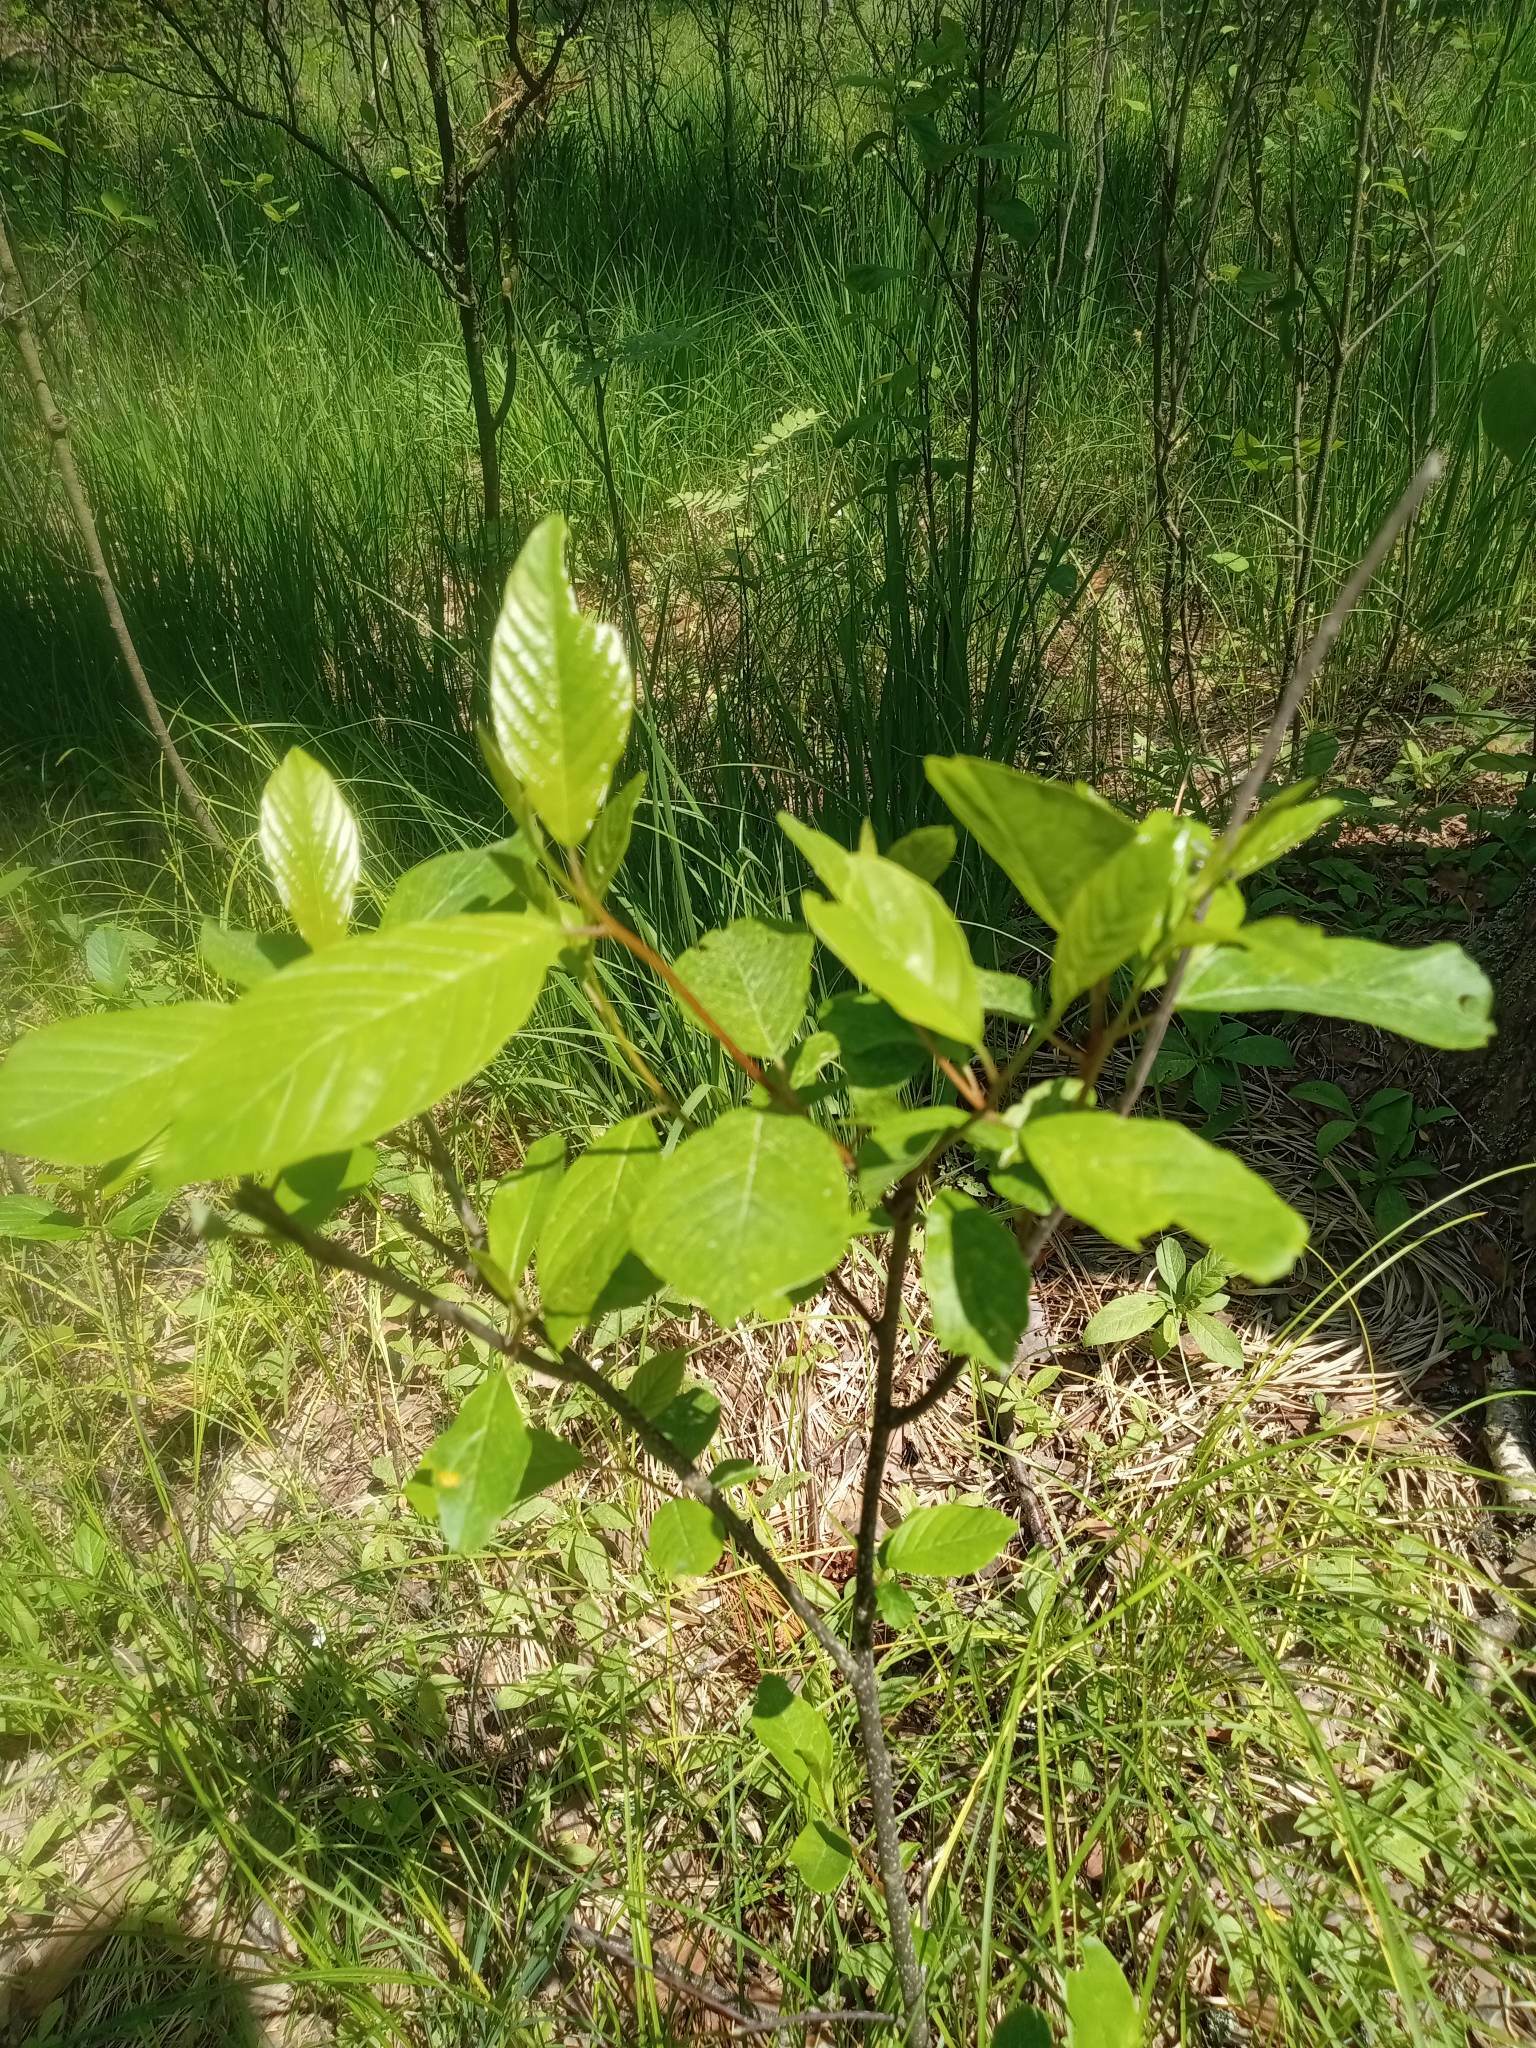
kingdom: Plantae
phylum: Tracheophyta
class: Magnoliopsida
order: Rosales
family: Rhamnaceae
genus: Frangula
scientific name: Frangula alnus
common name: Alder buckthorn
